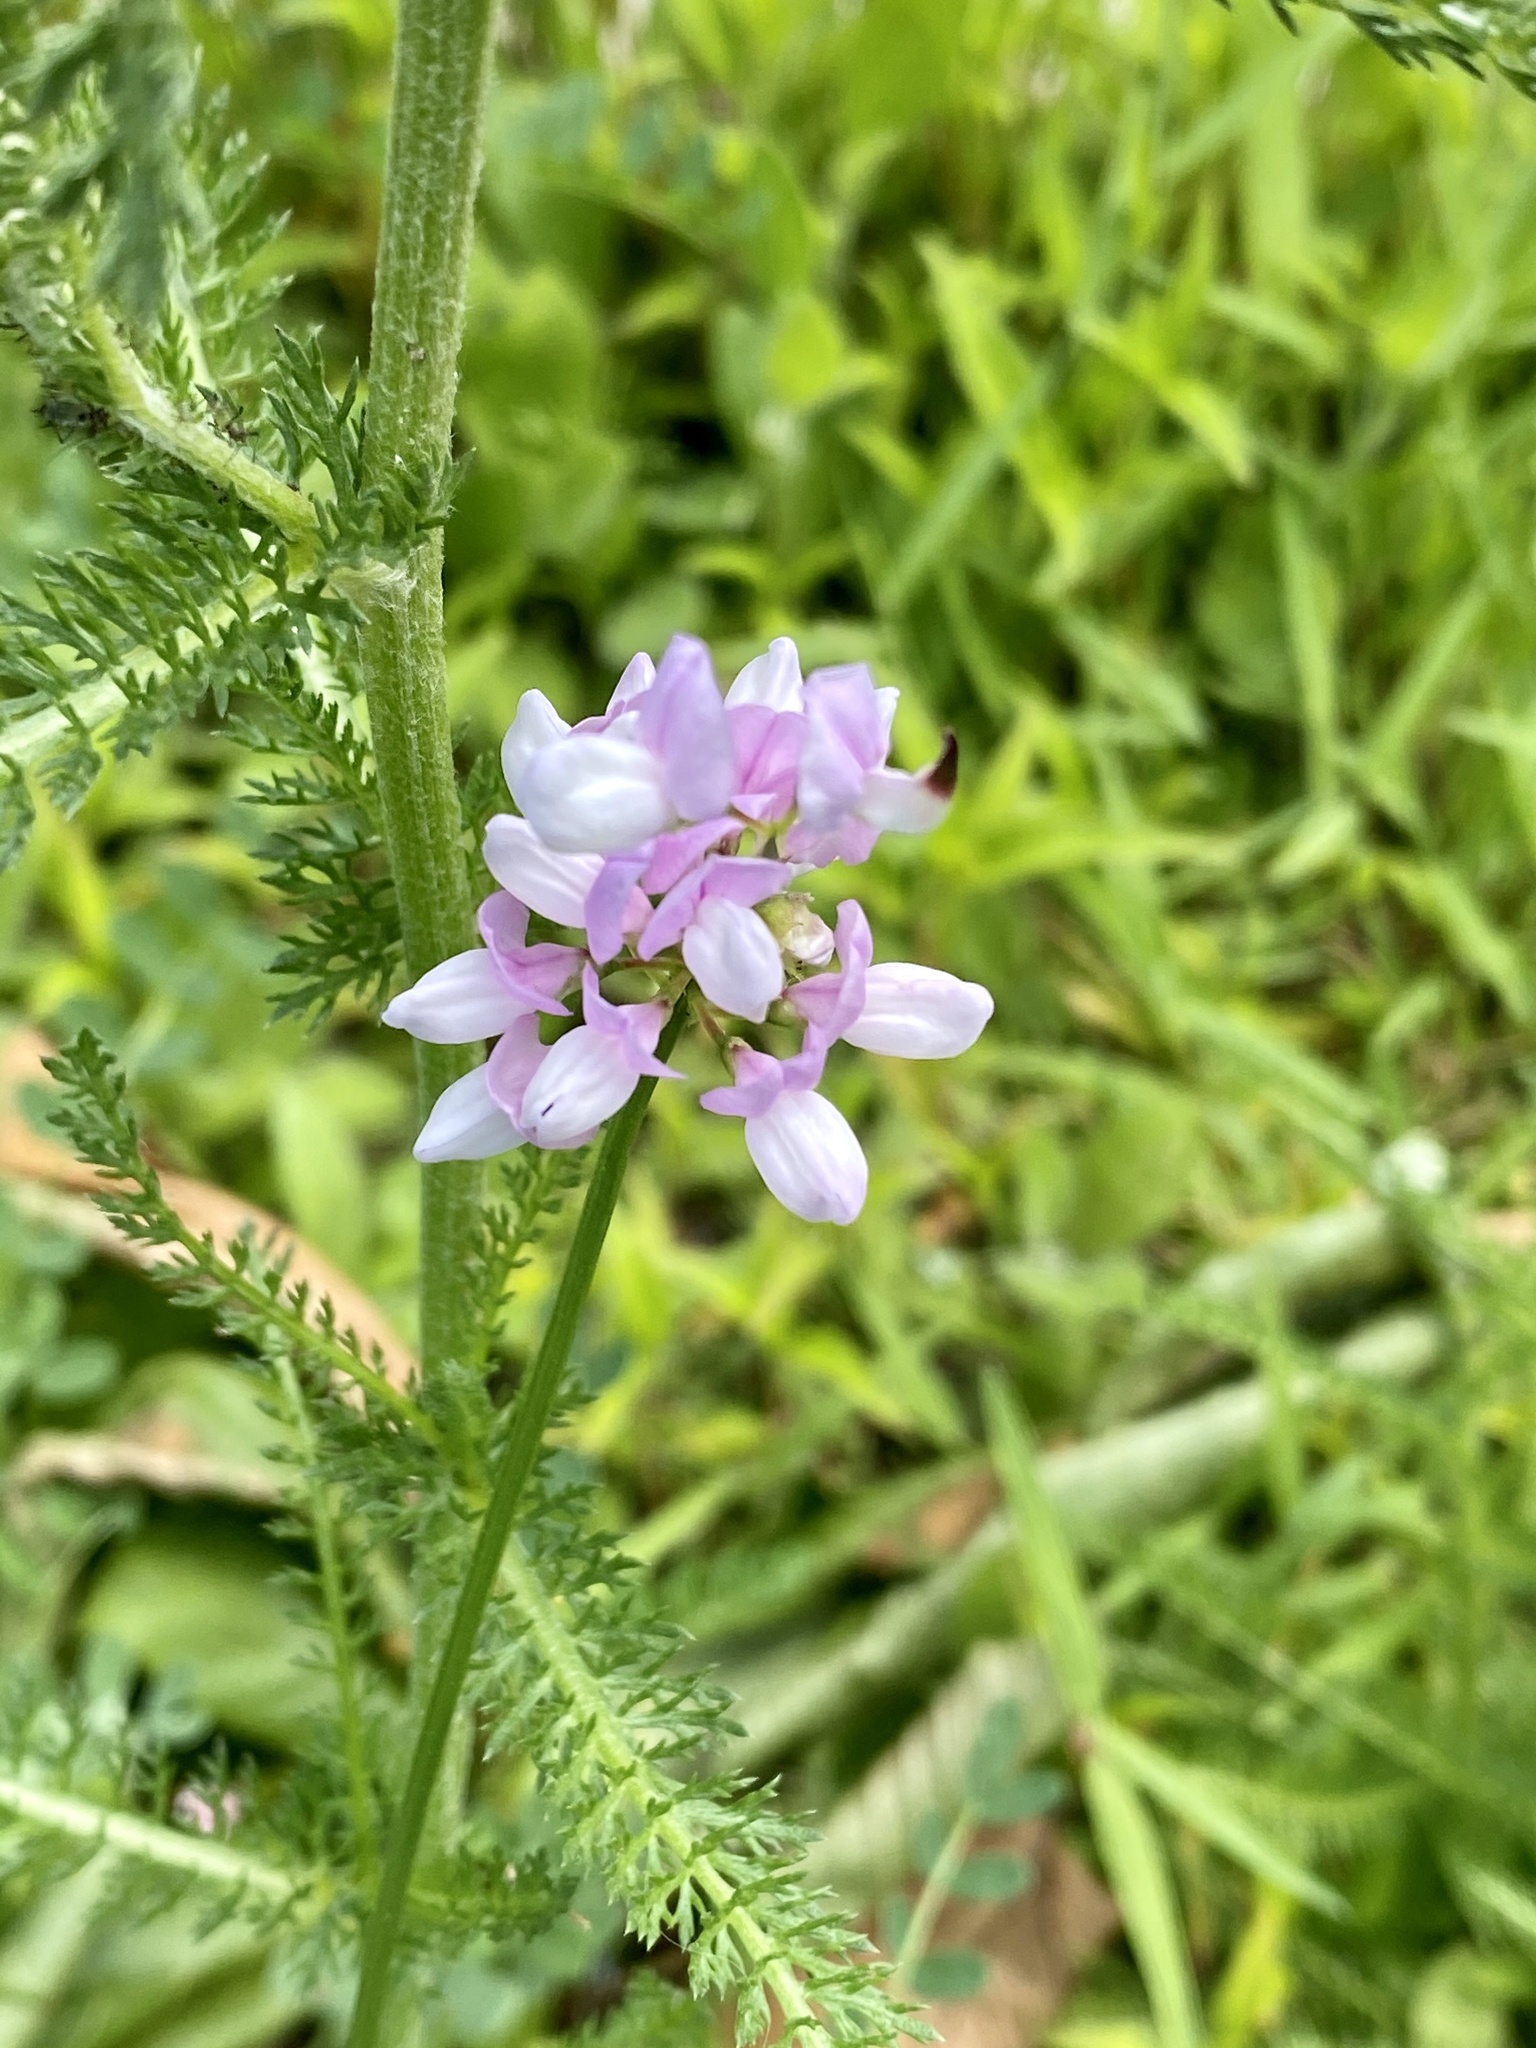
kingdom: Plantae
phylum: Tracheophyta
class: Magnoliopsida
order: Fabales
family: Fabaceae
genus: Coronilla
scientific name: Coronilla varia
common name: Crownvetch
